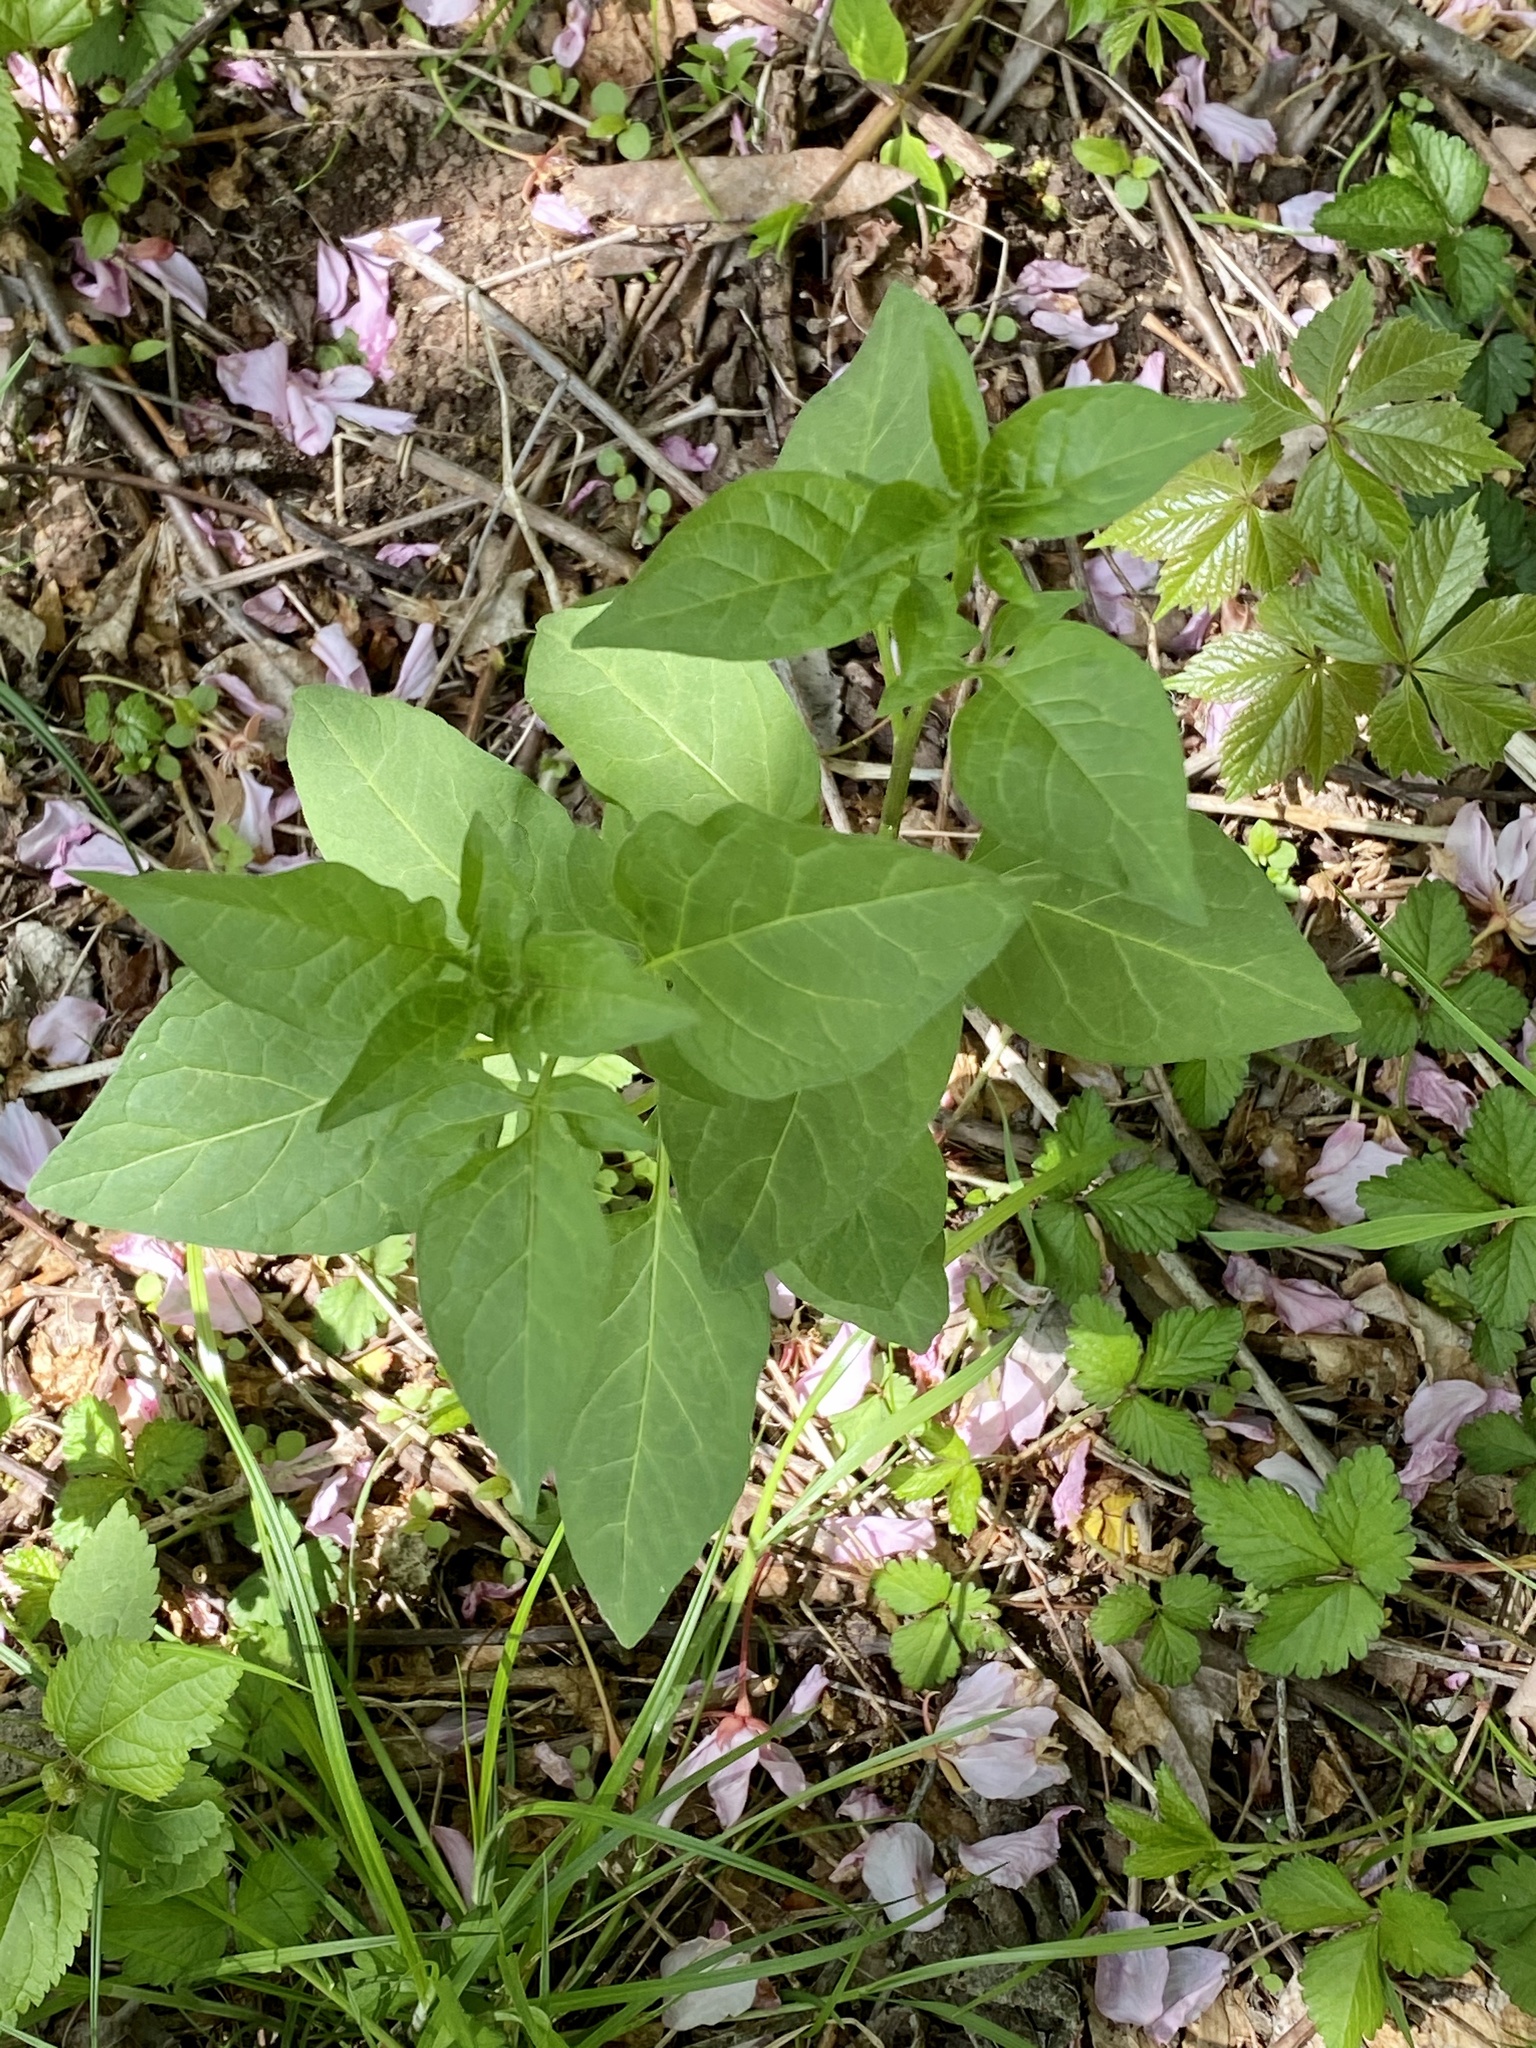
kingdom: Plantae
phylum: Tracheophyta
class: Magnoliopsida
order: Solanales
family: Solanaceae
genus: Solanum
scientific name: Solanum dulcamara
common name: Climbing nightshade
